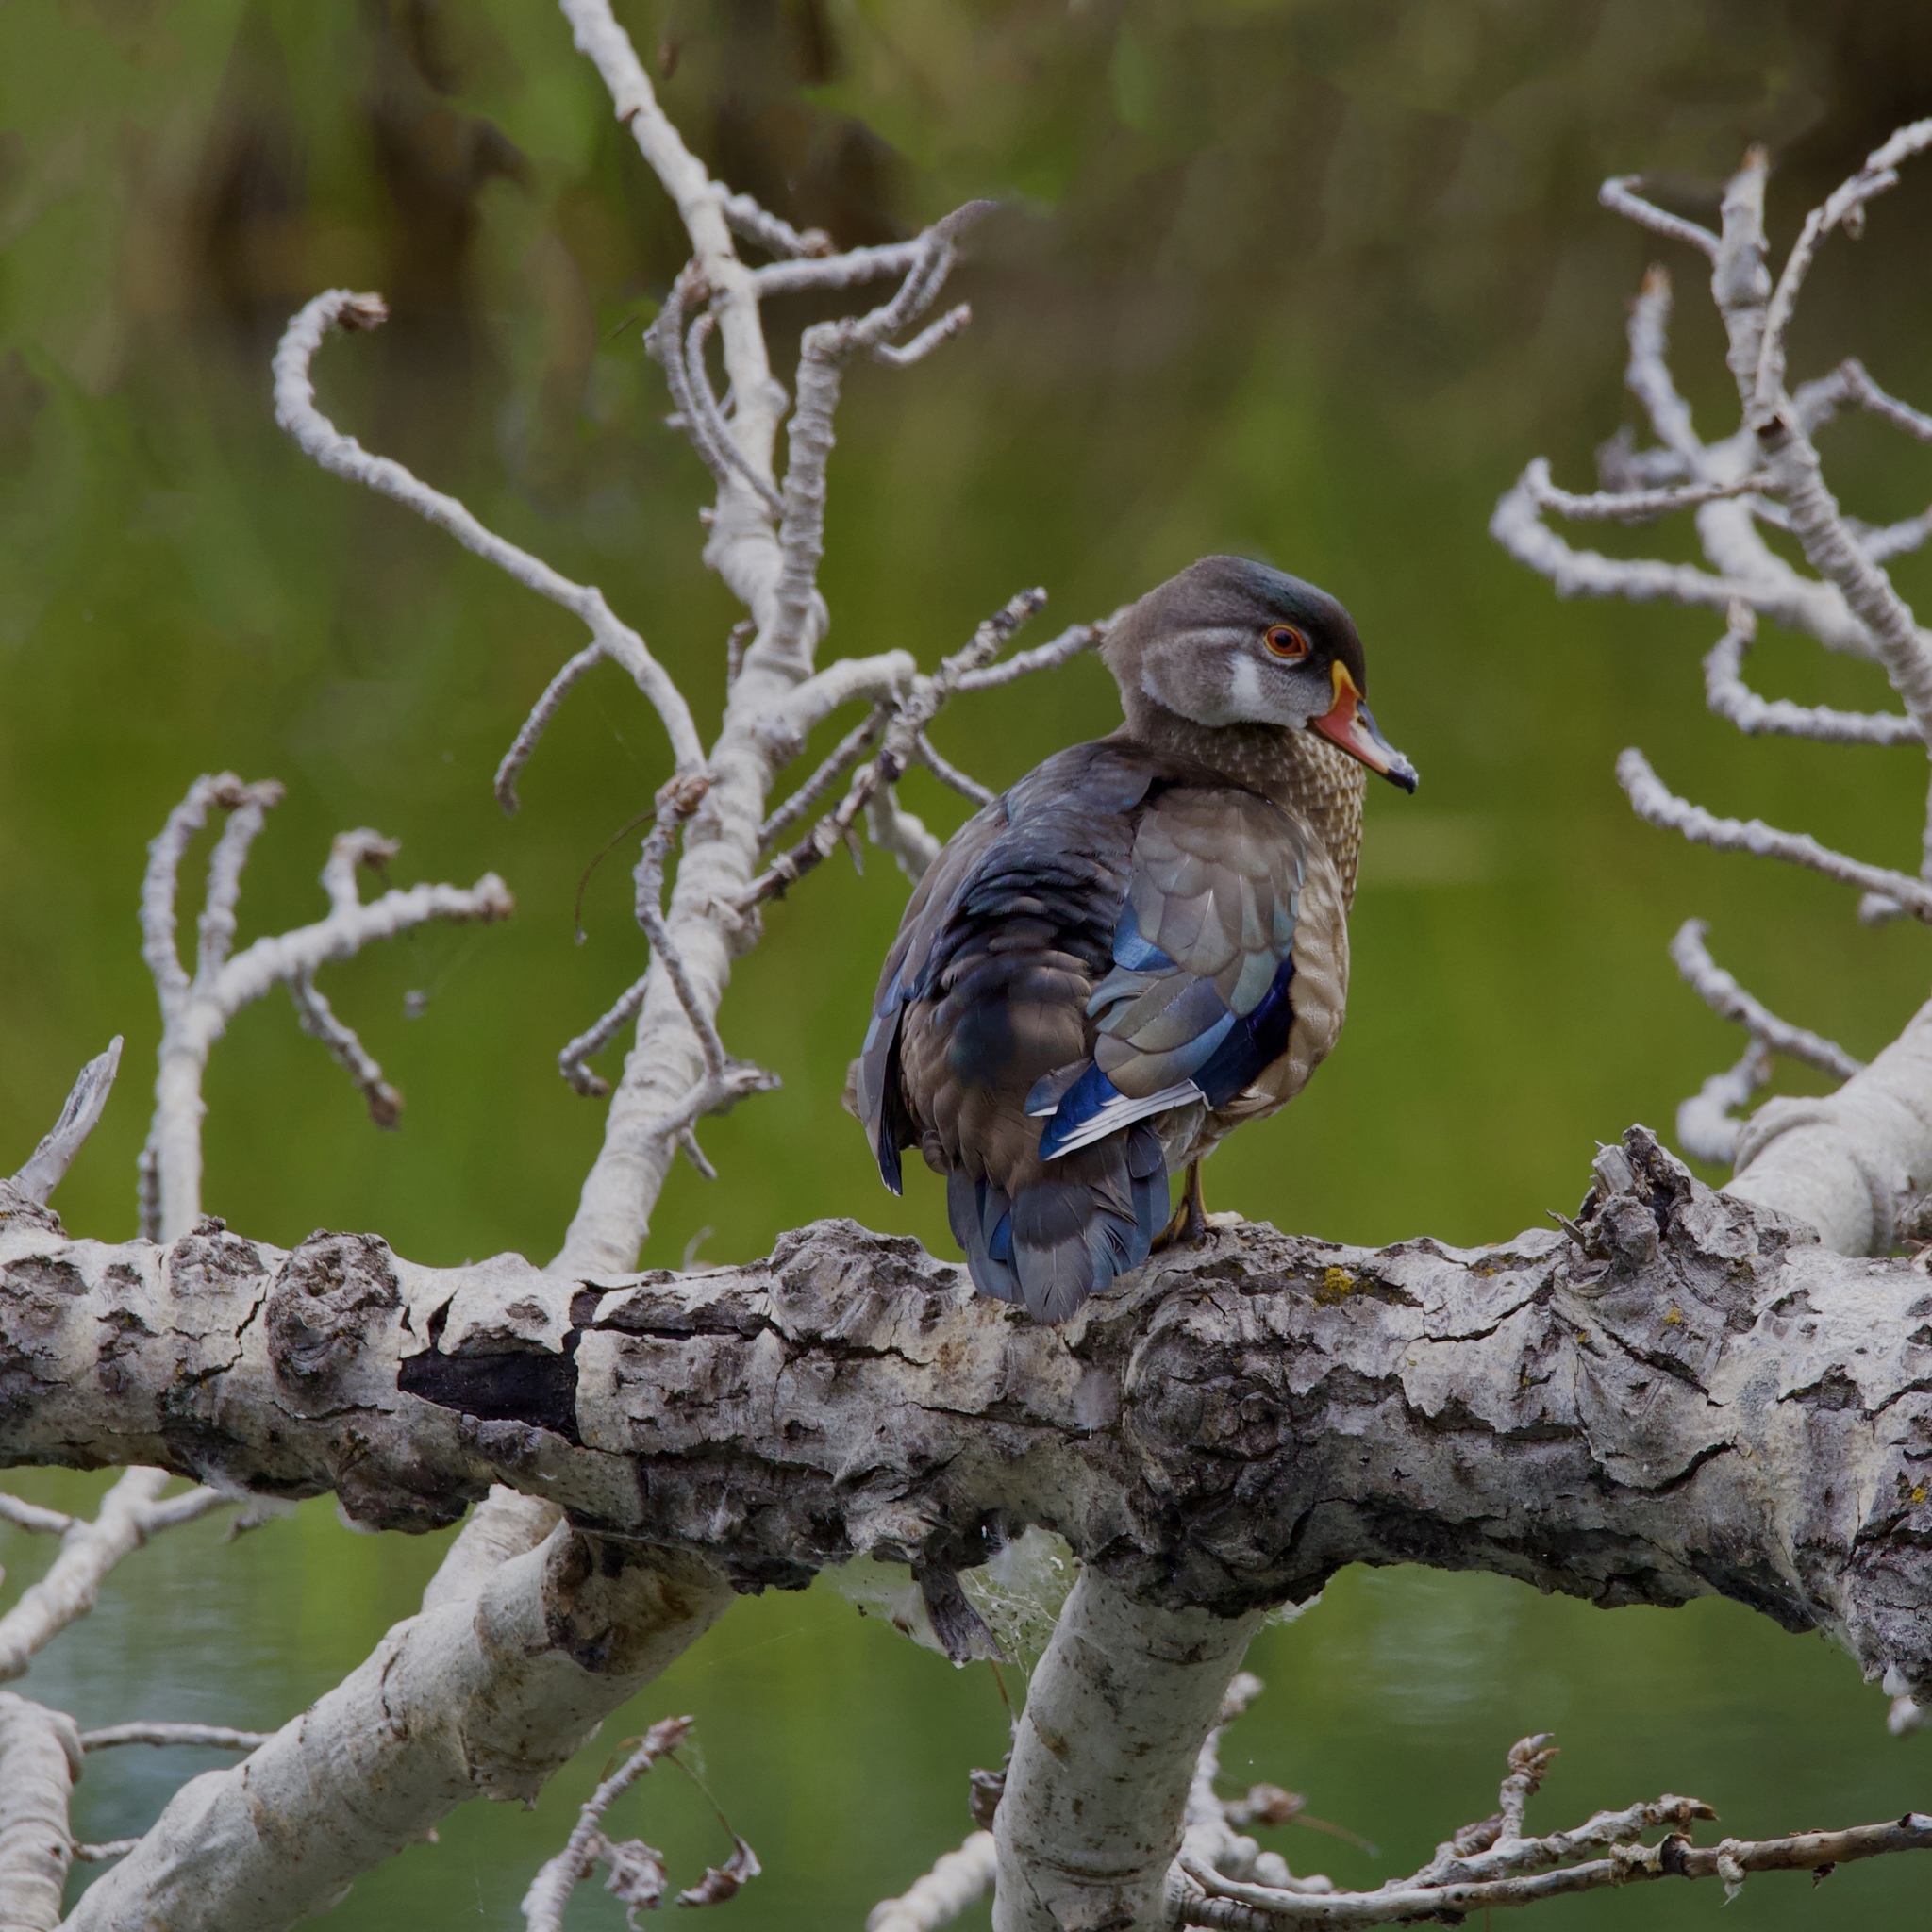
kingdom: Animalia
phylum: Chordata
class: Aves
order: Anseriformes
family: Anatidae
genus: Aix
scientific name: Aix sponsa
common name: Wood duck
